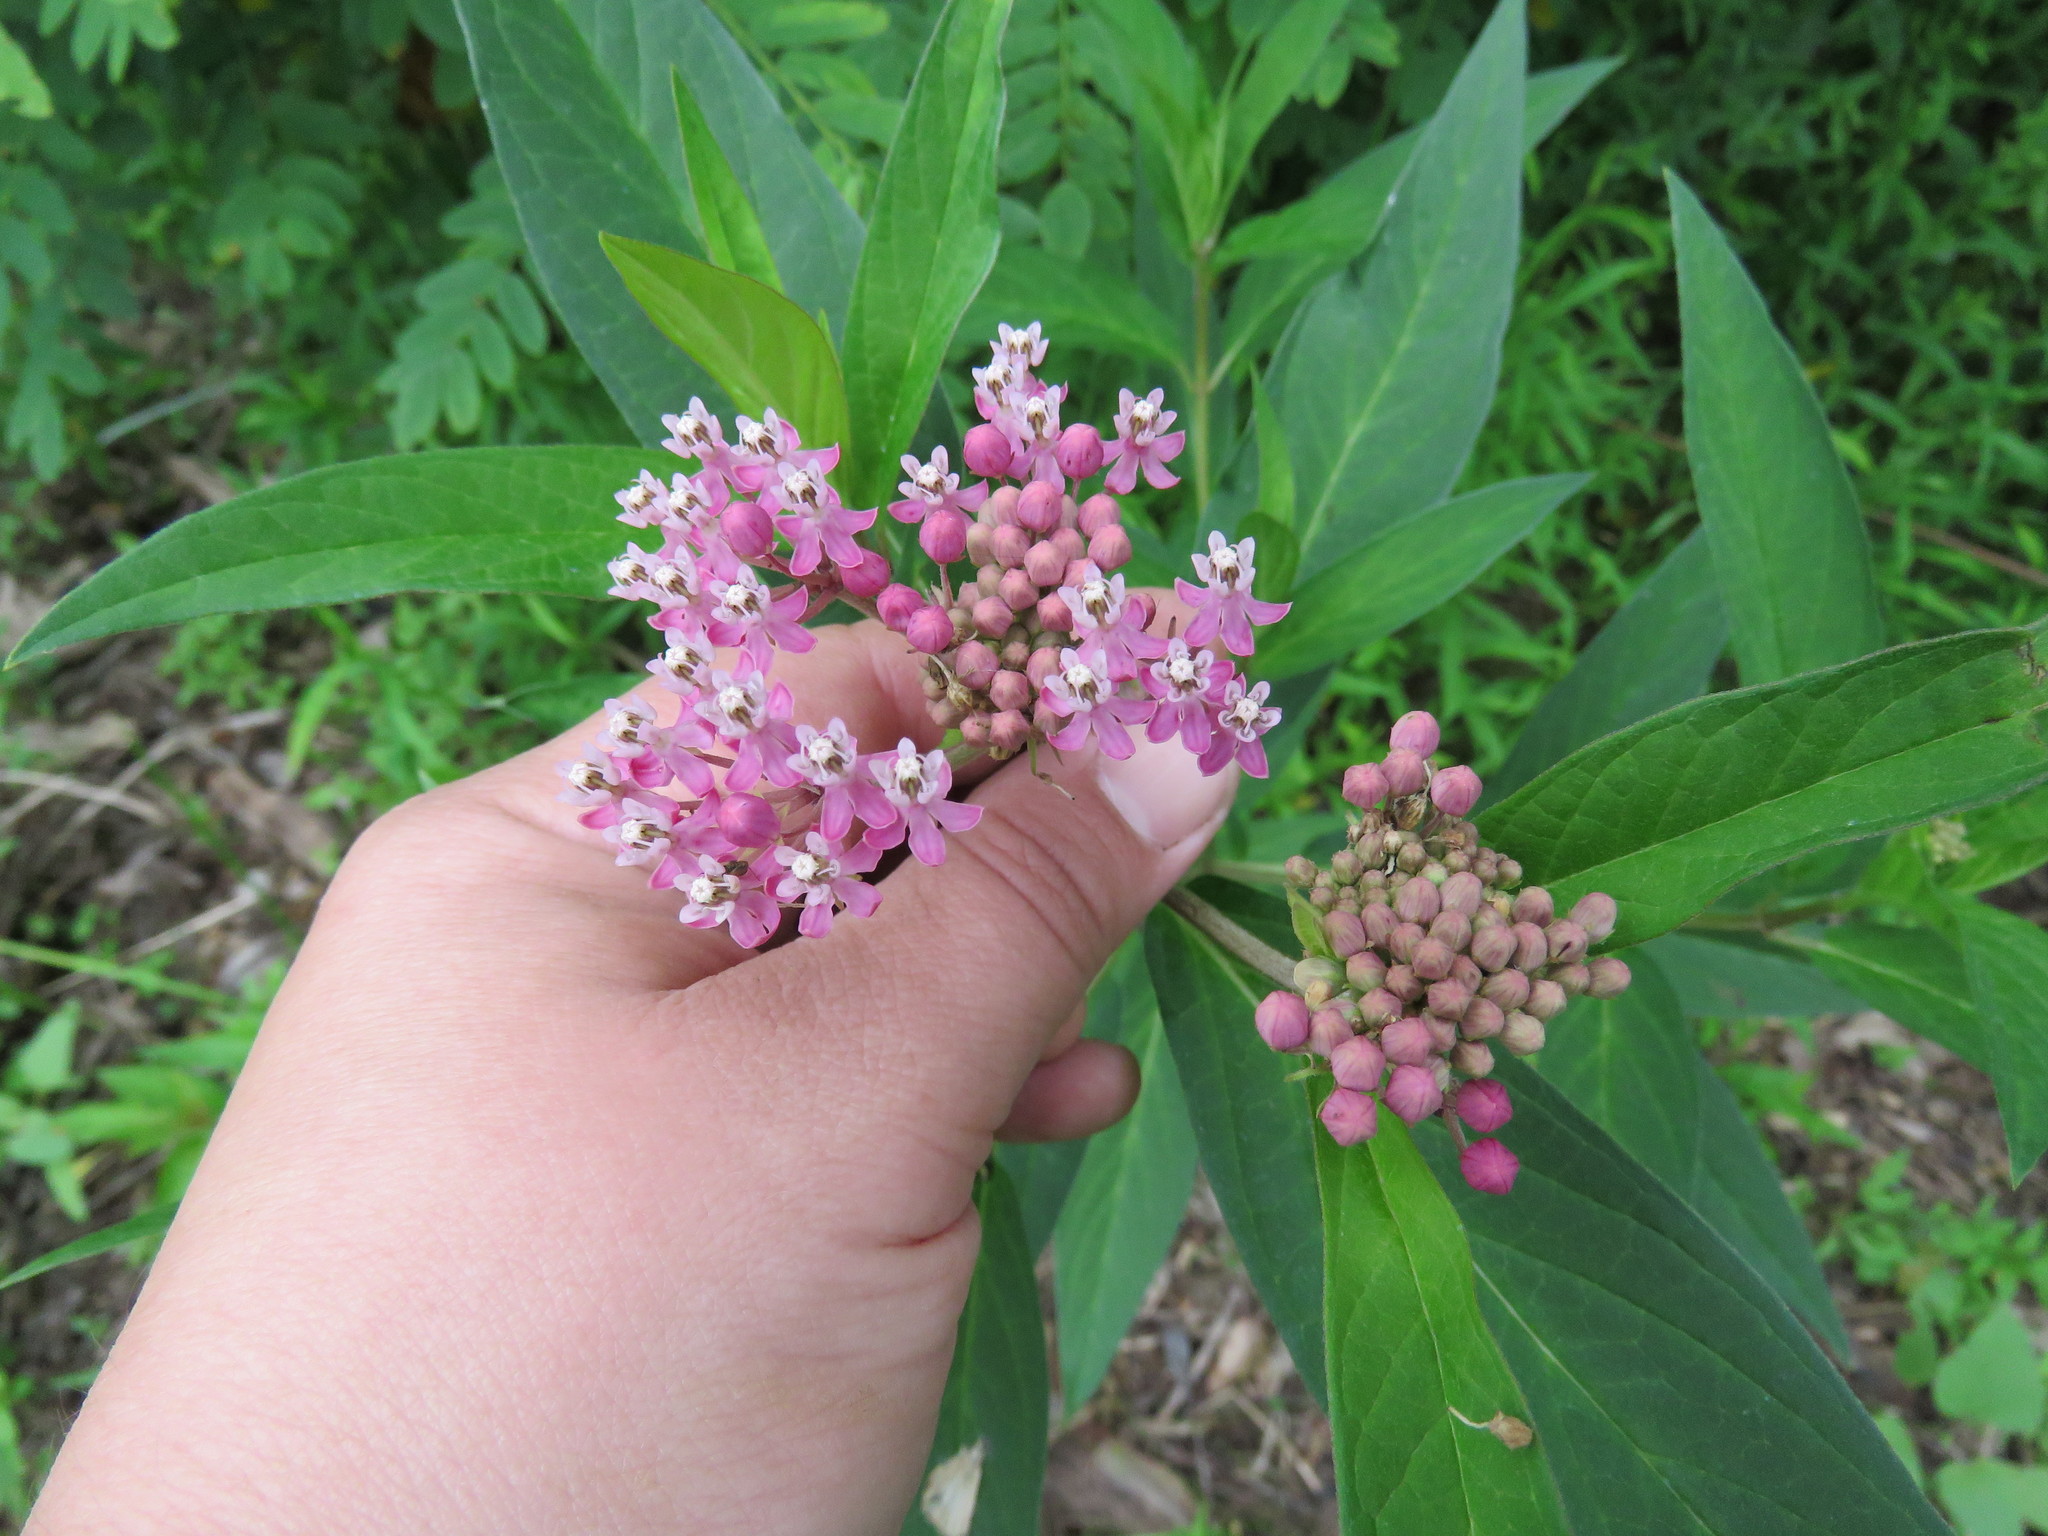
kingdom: Plantae
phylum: Tracheophyta
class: Magnoliopsida
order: Gentianales
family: Apocynaceae
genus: Asclepias
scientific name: Asclepias incarnata
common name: Swamp milkweed
